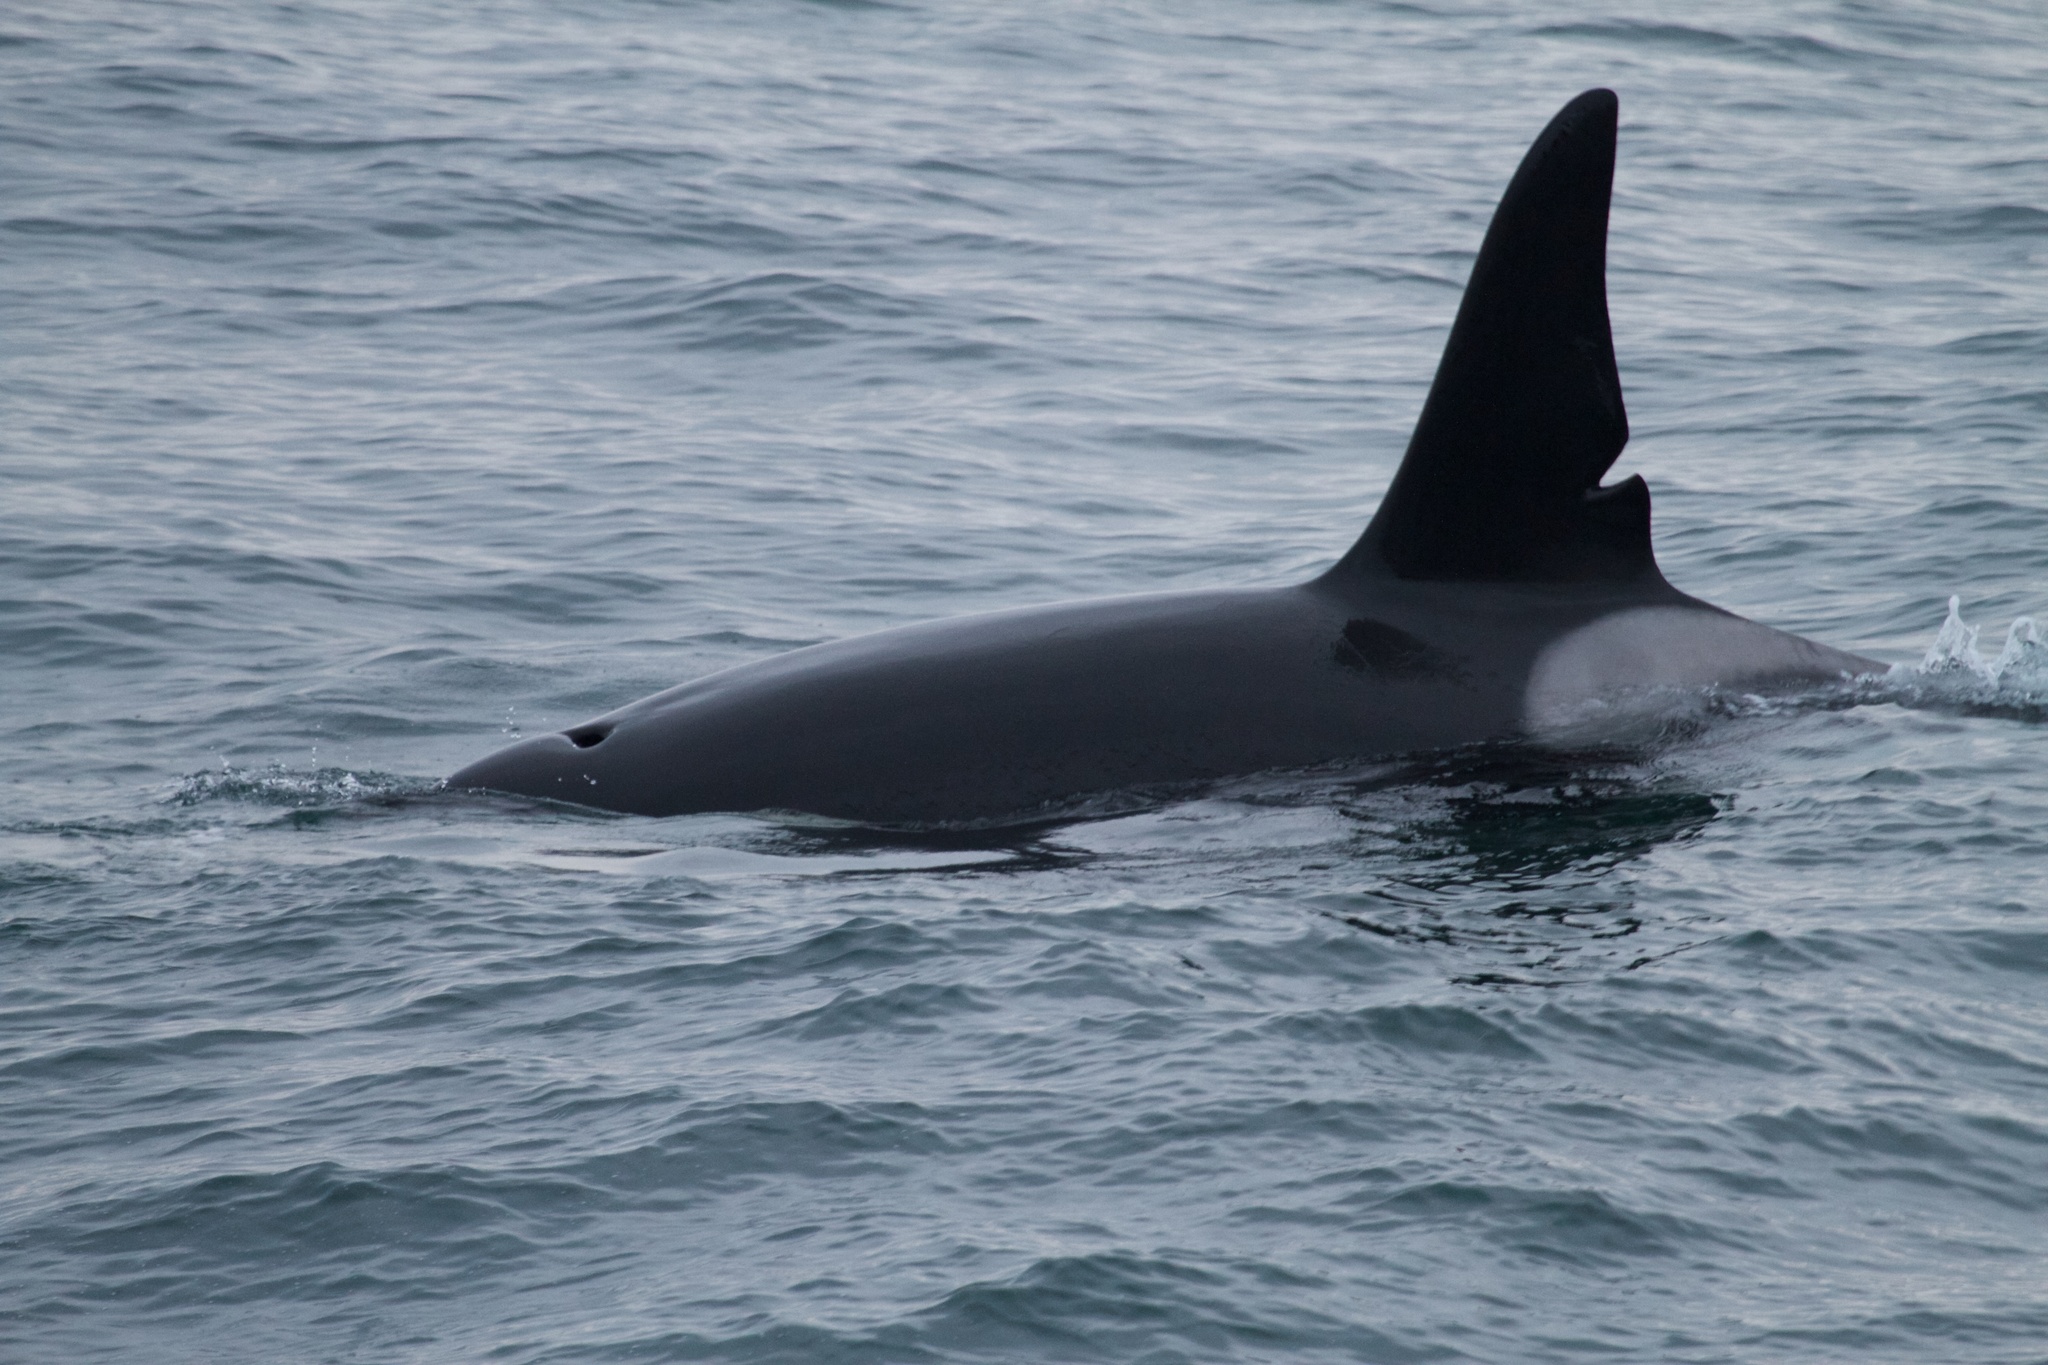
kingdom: Animalia
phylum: Chordata
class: Mammalia
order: Cetacea
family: Delphinidae
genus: Orcinus
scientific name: Orcinus orca
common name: Killer whale
